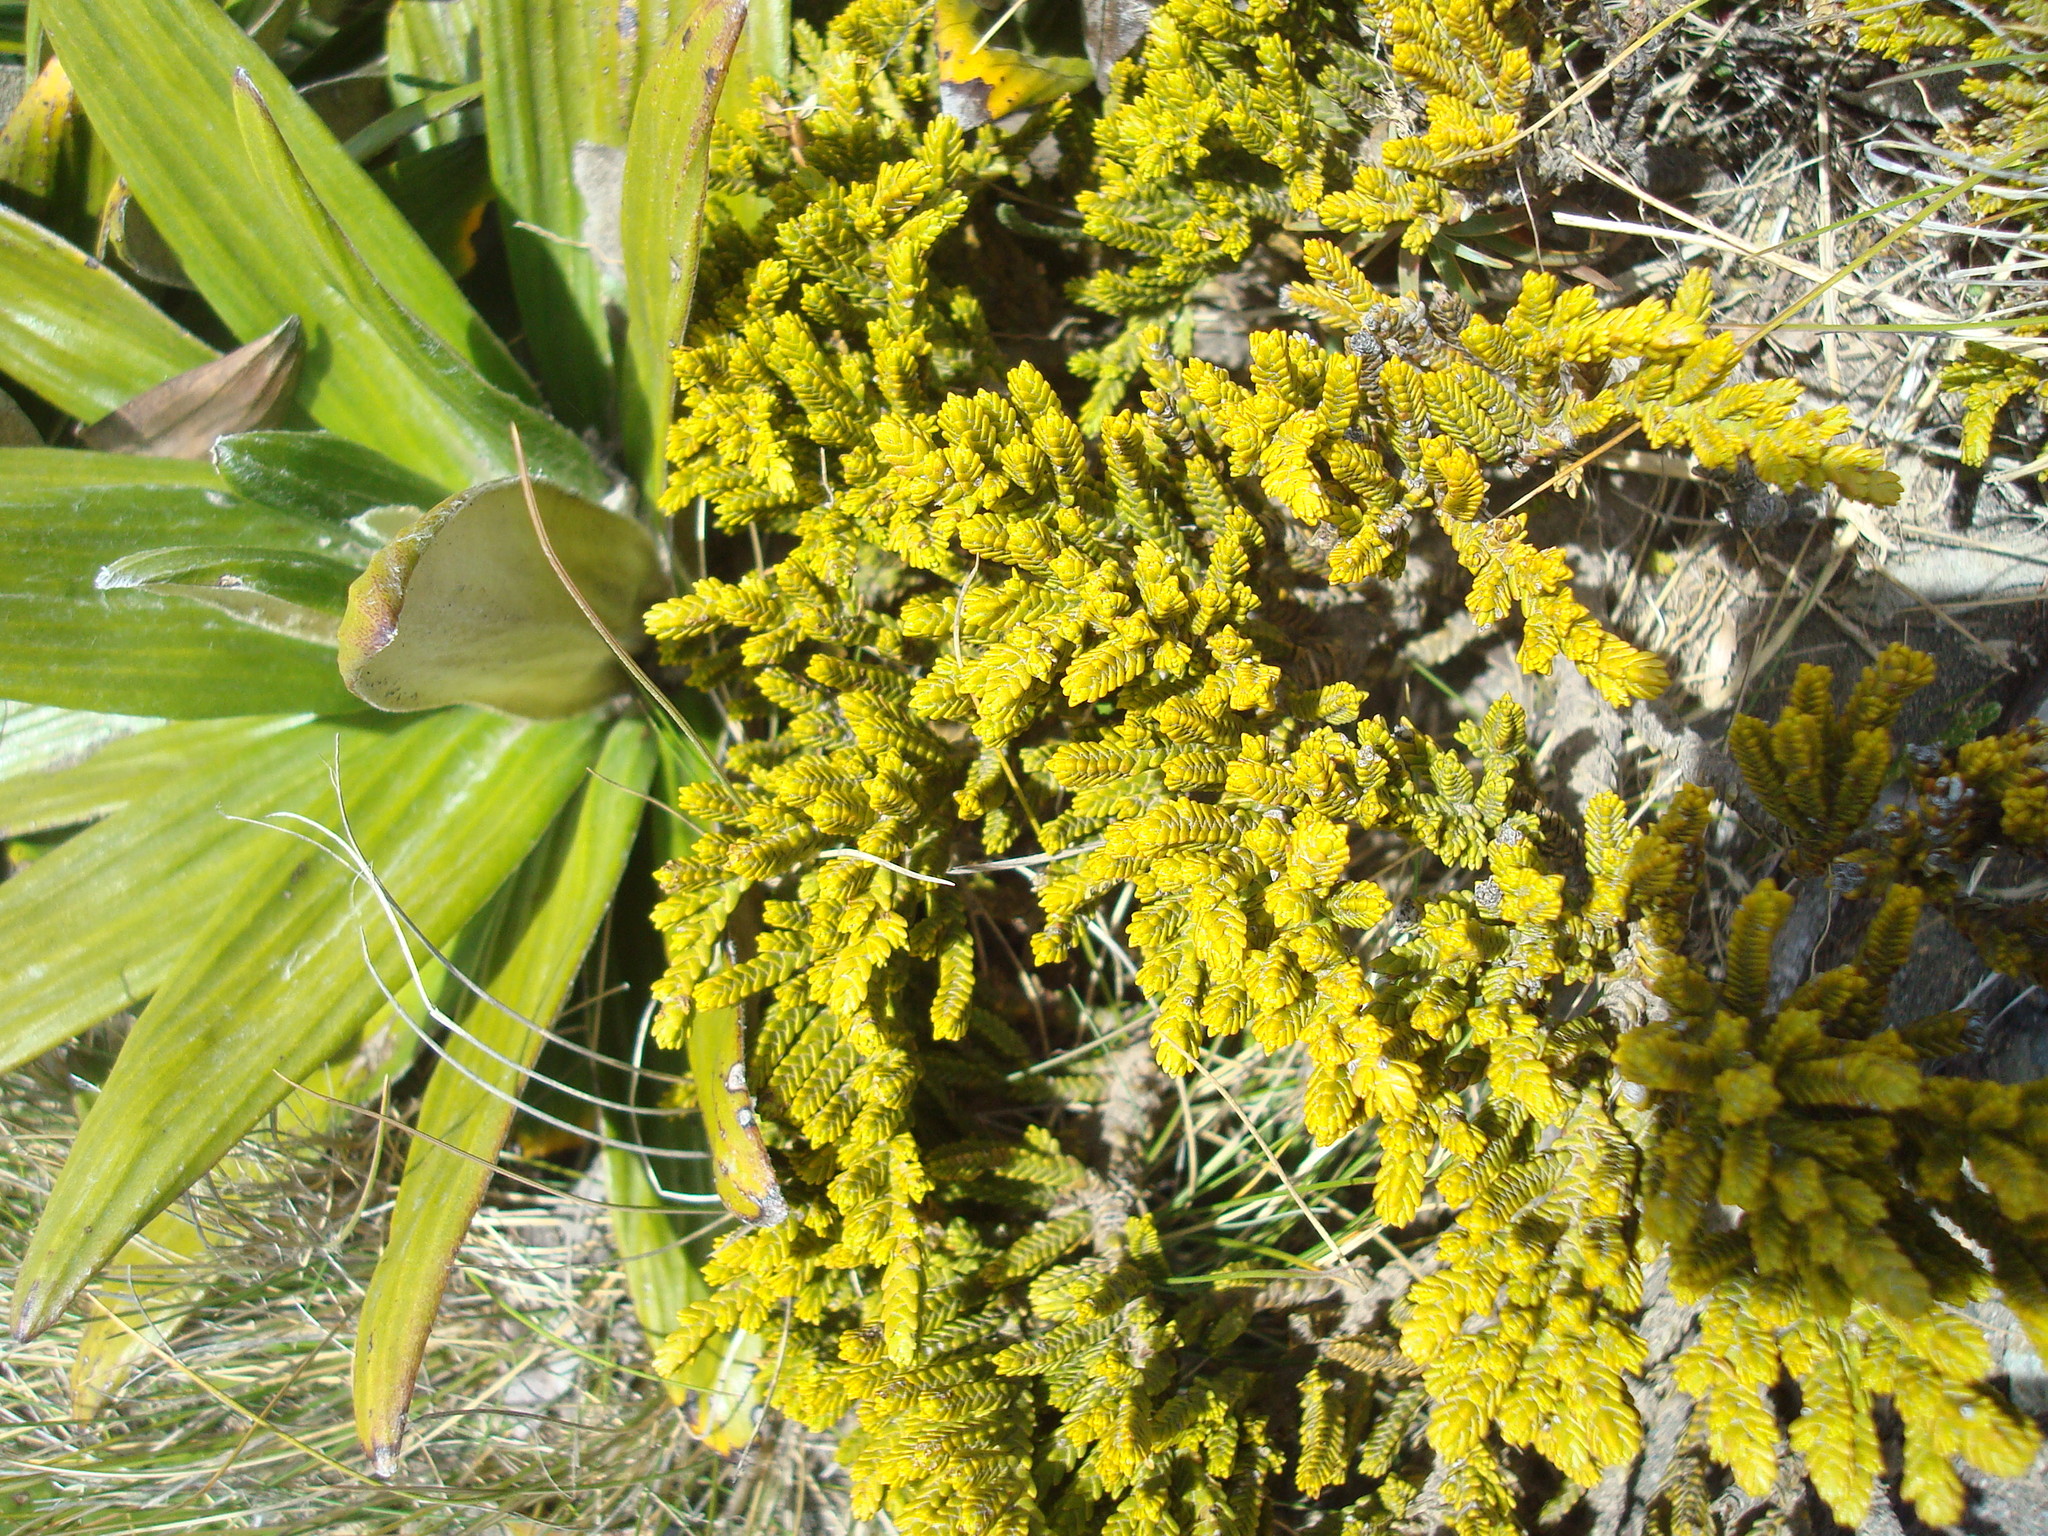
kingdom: Plantae
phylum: Tracheophyta
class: Magnoliopsida
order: Lamiales
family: Plantaginaceae
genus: Veronica
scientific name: Veronica tetragona
